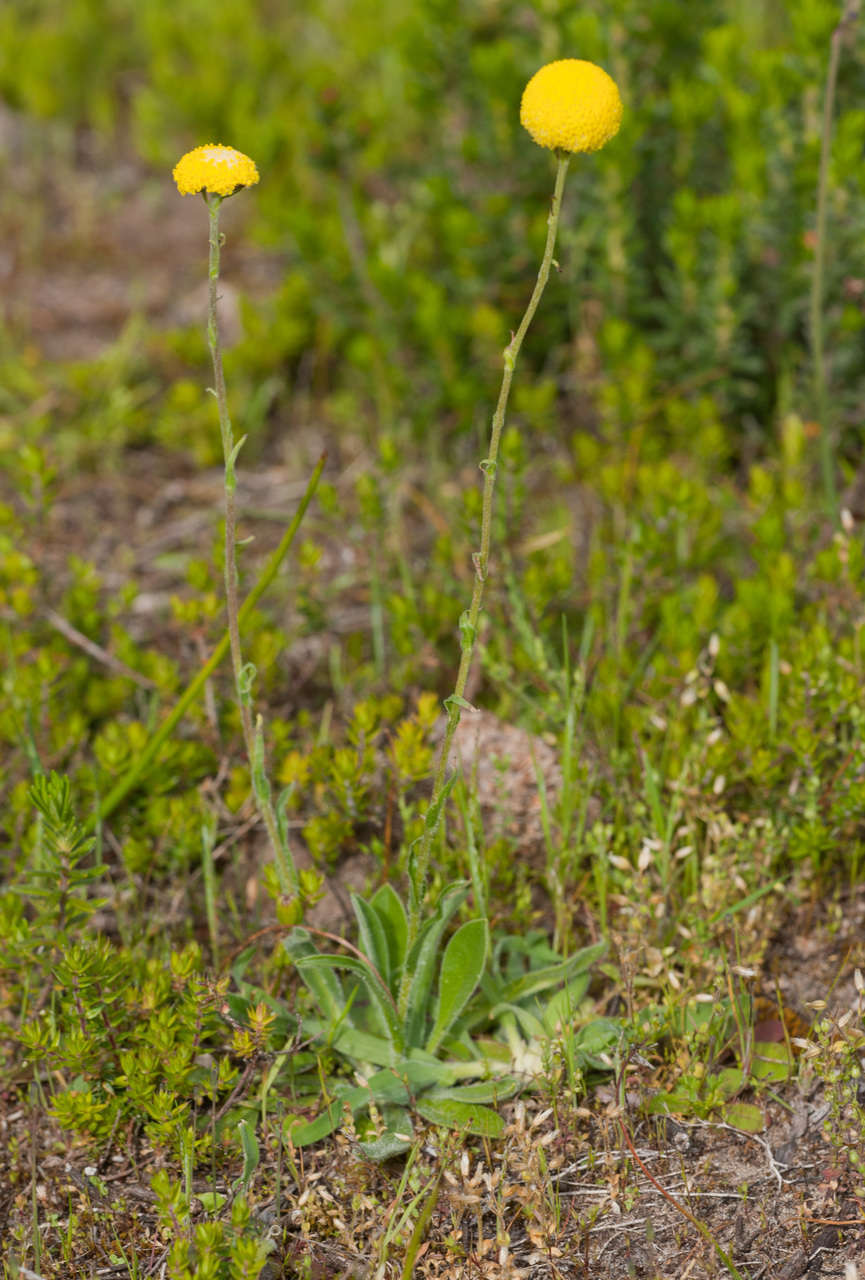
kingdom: Plantae
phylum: Tracheophyta
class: Magnoliopsida
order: Asterales
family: Asteraceae
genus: Craspedia
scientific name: Craspedia variabilis
